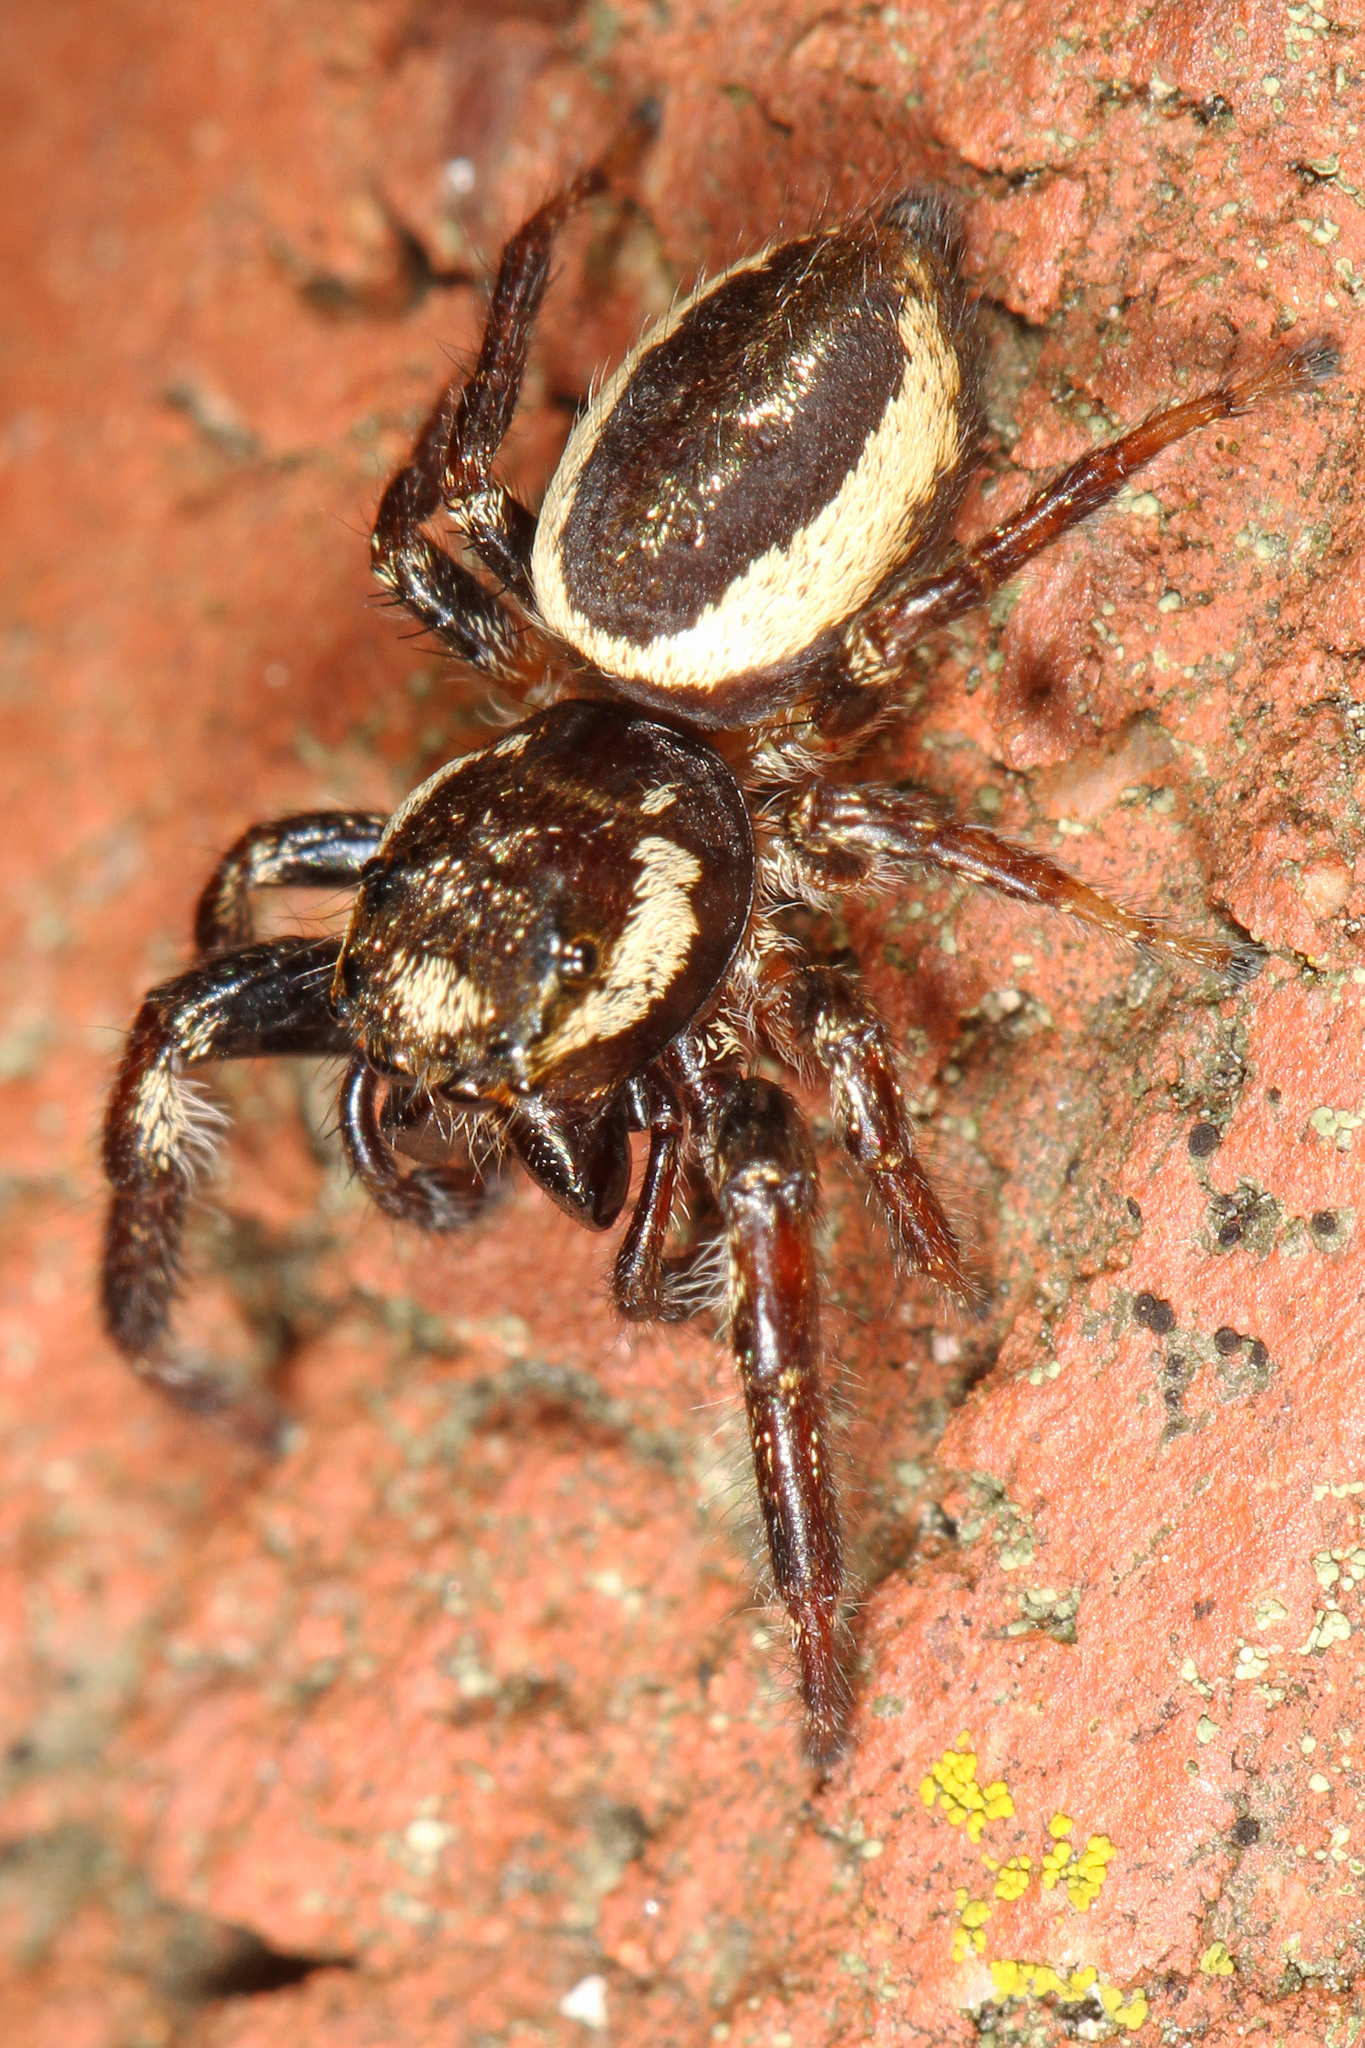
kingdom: Animalia
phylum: Arthropoda
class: Arachnida
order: Araneae
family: Salticidae
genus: Eris
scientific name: Eris militaris
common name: Bronze jumper
